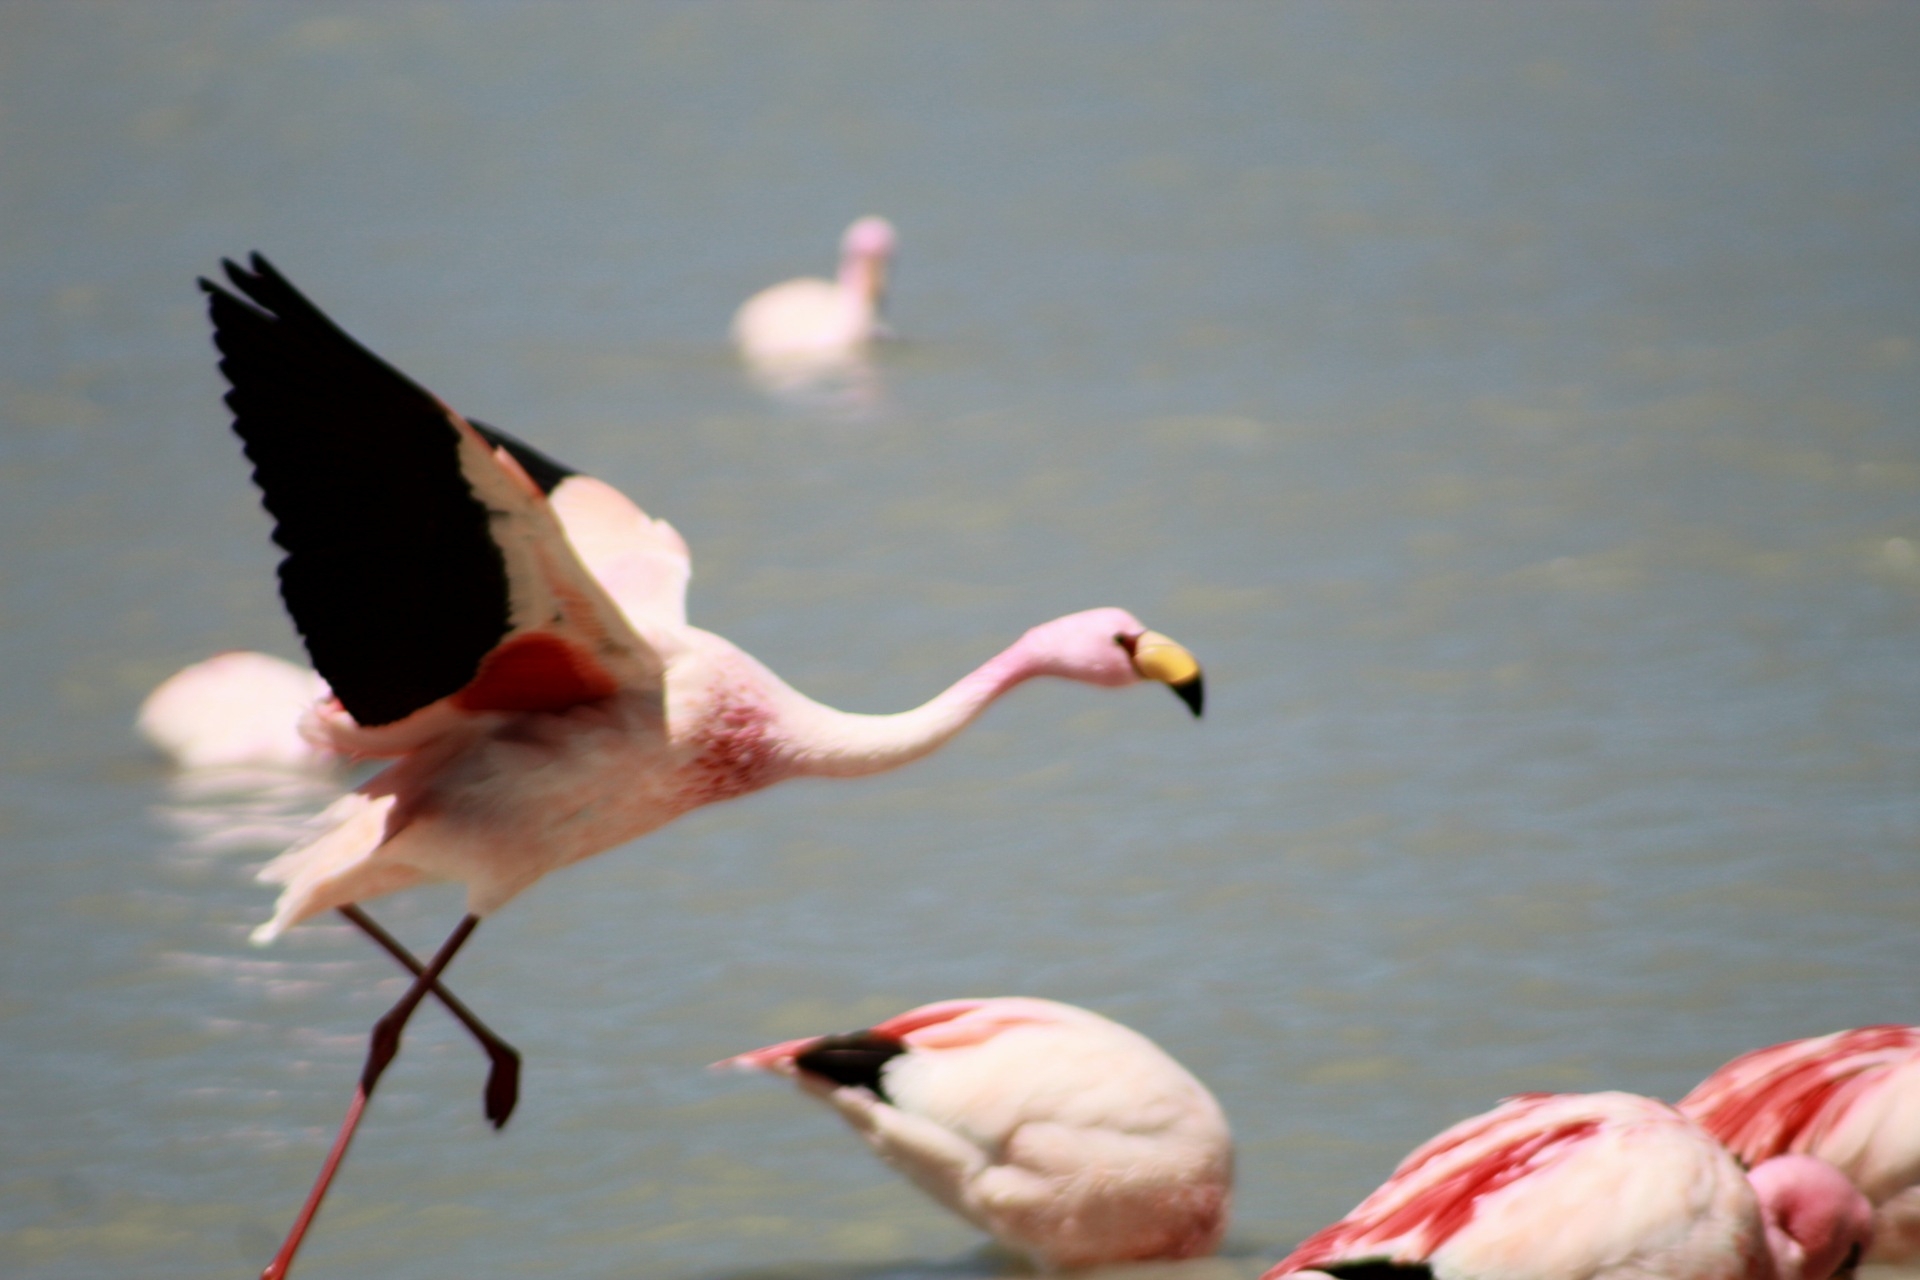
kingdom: Animalia
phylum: Chordata
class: Aves
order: Phoenicopteriformes
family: Phoenicopteridae
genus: Phoenicoparrus
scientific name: Phoenicoparrus jamesi
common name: James's flamingo
